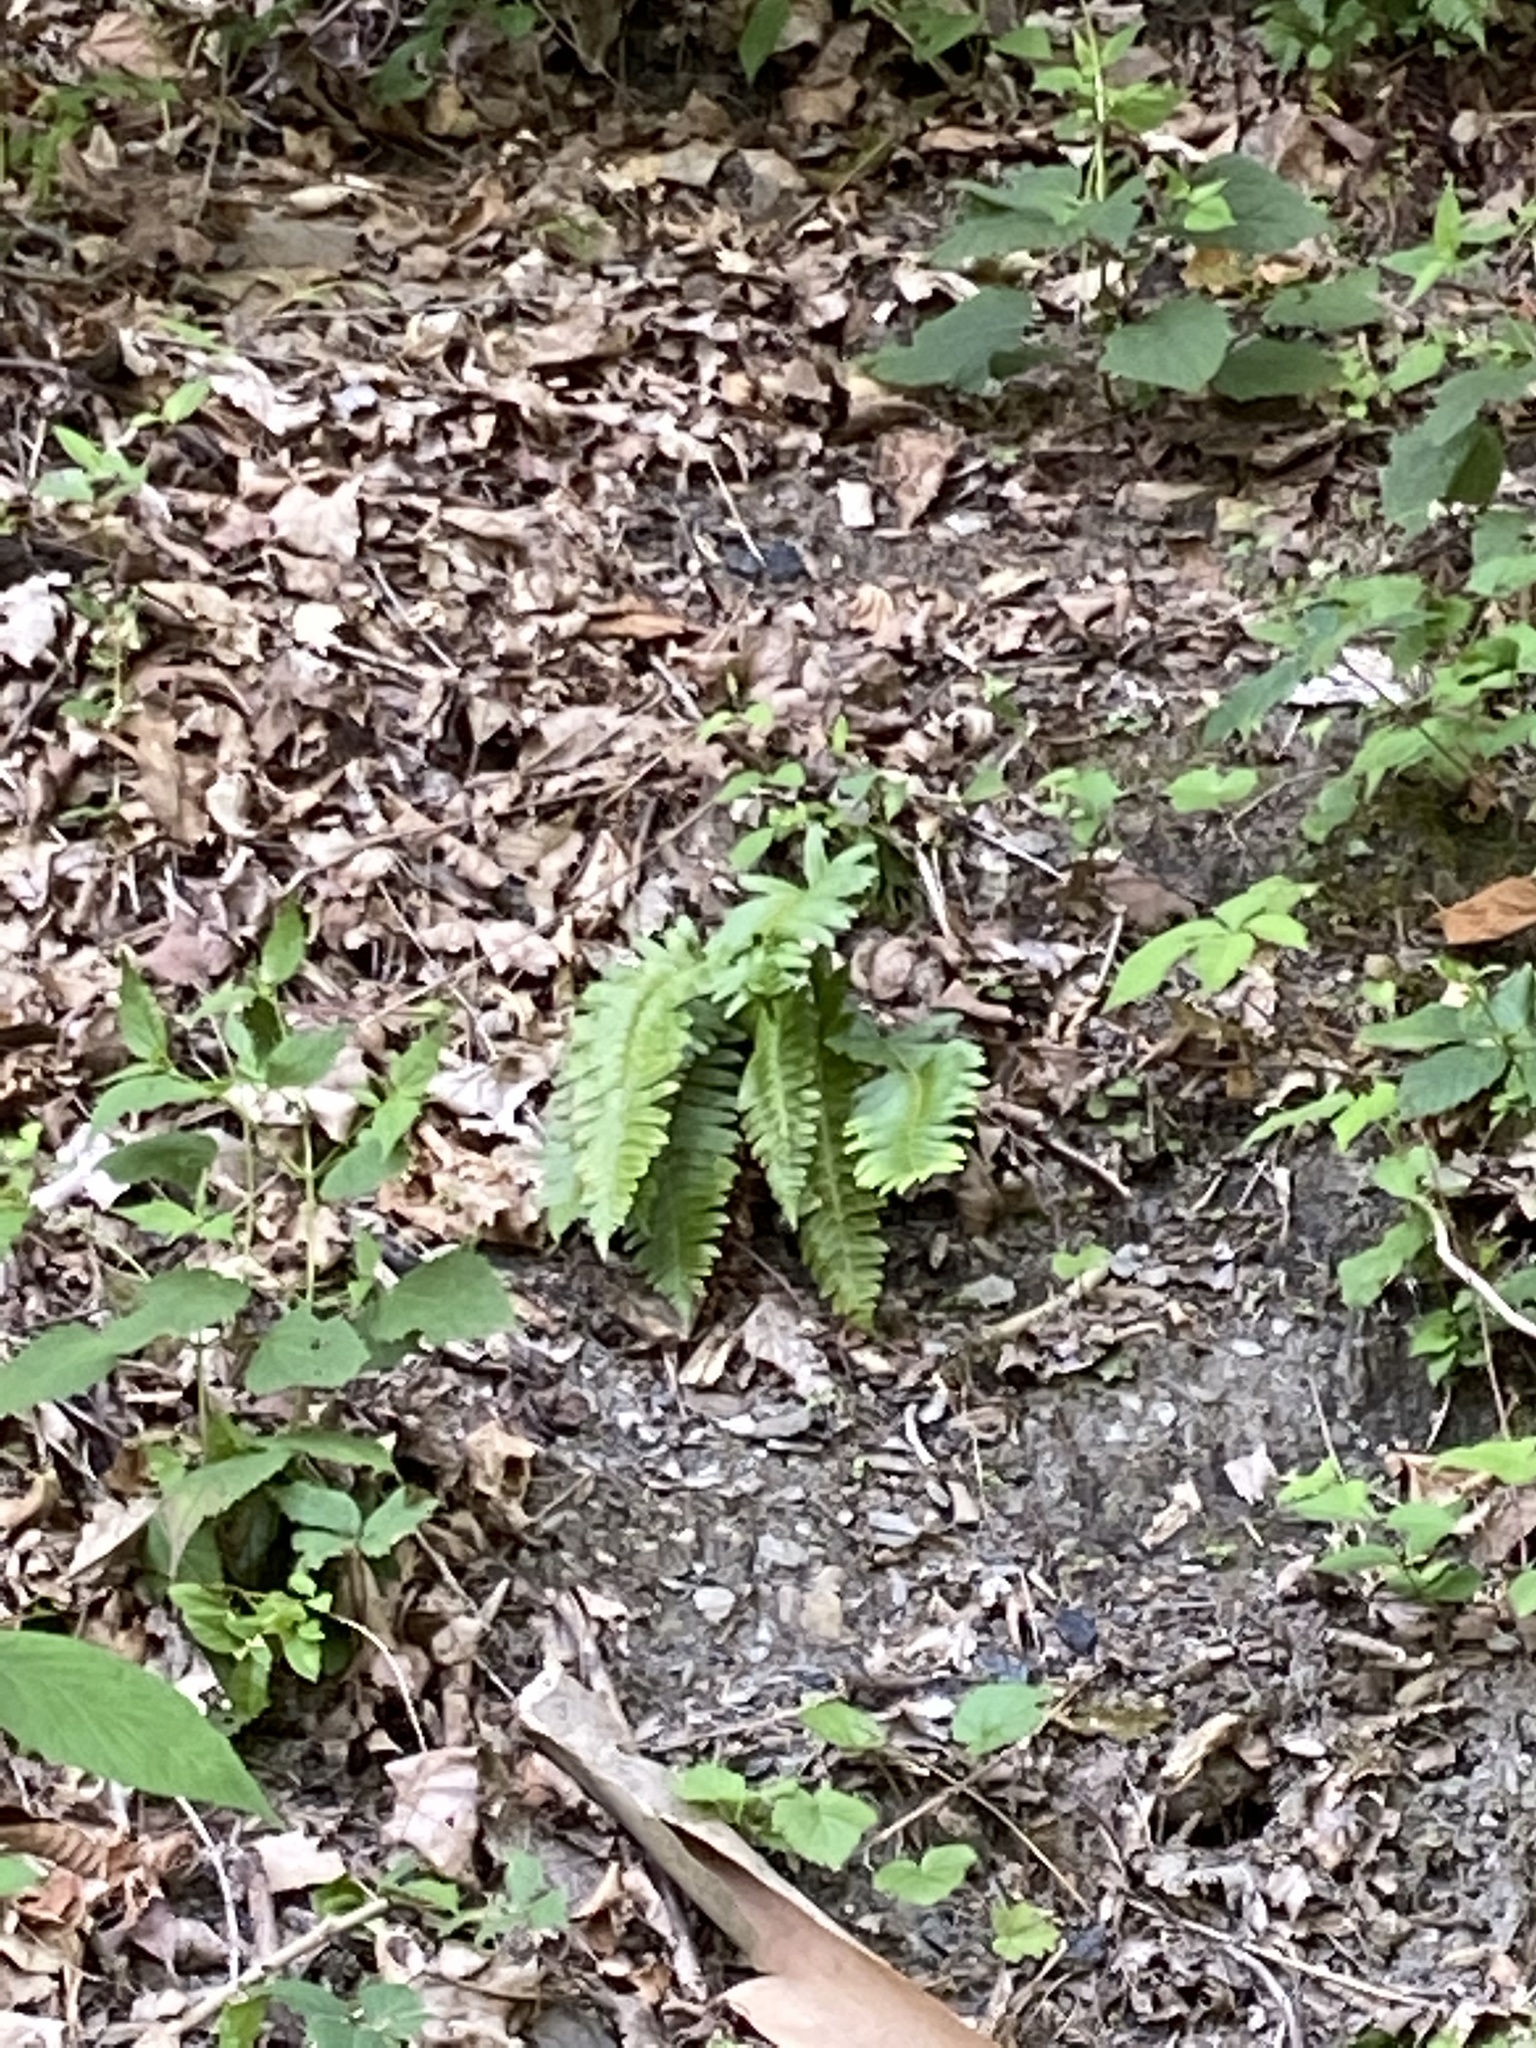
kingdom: Plantae
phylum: Tracheophyta
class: Polypodiopsida
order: Polypodiales
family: Dryopteridaceae
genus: Polystichum
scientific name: Polystichum acrostichoides
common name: Christmas fern
